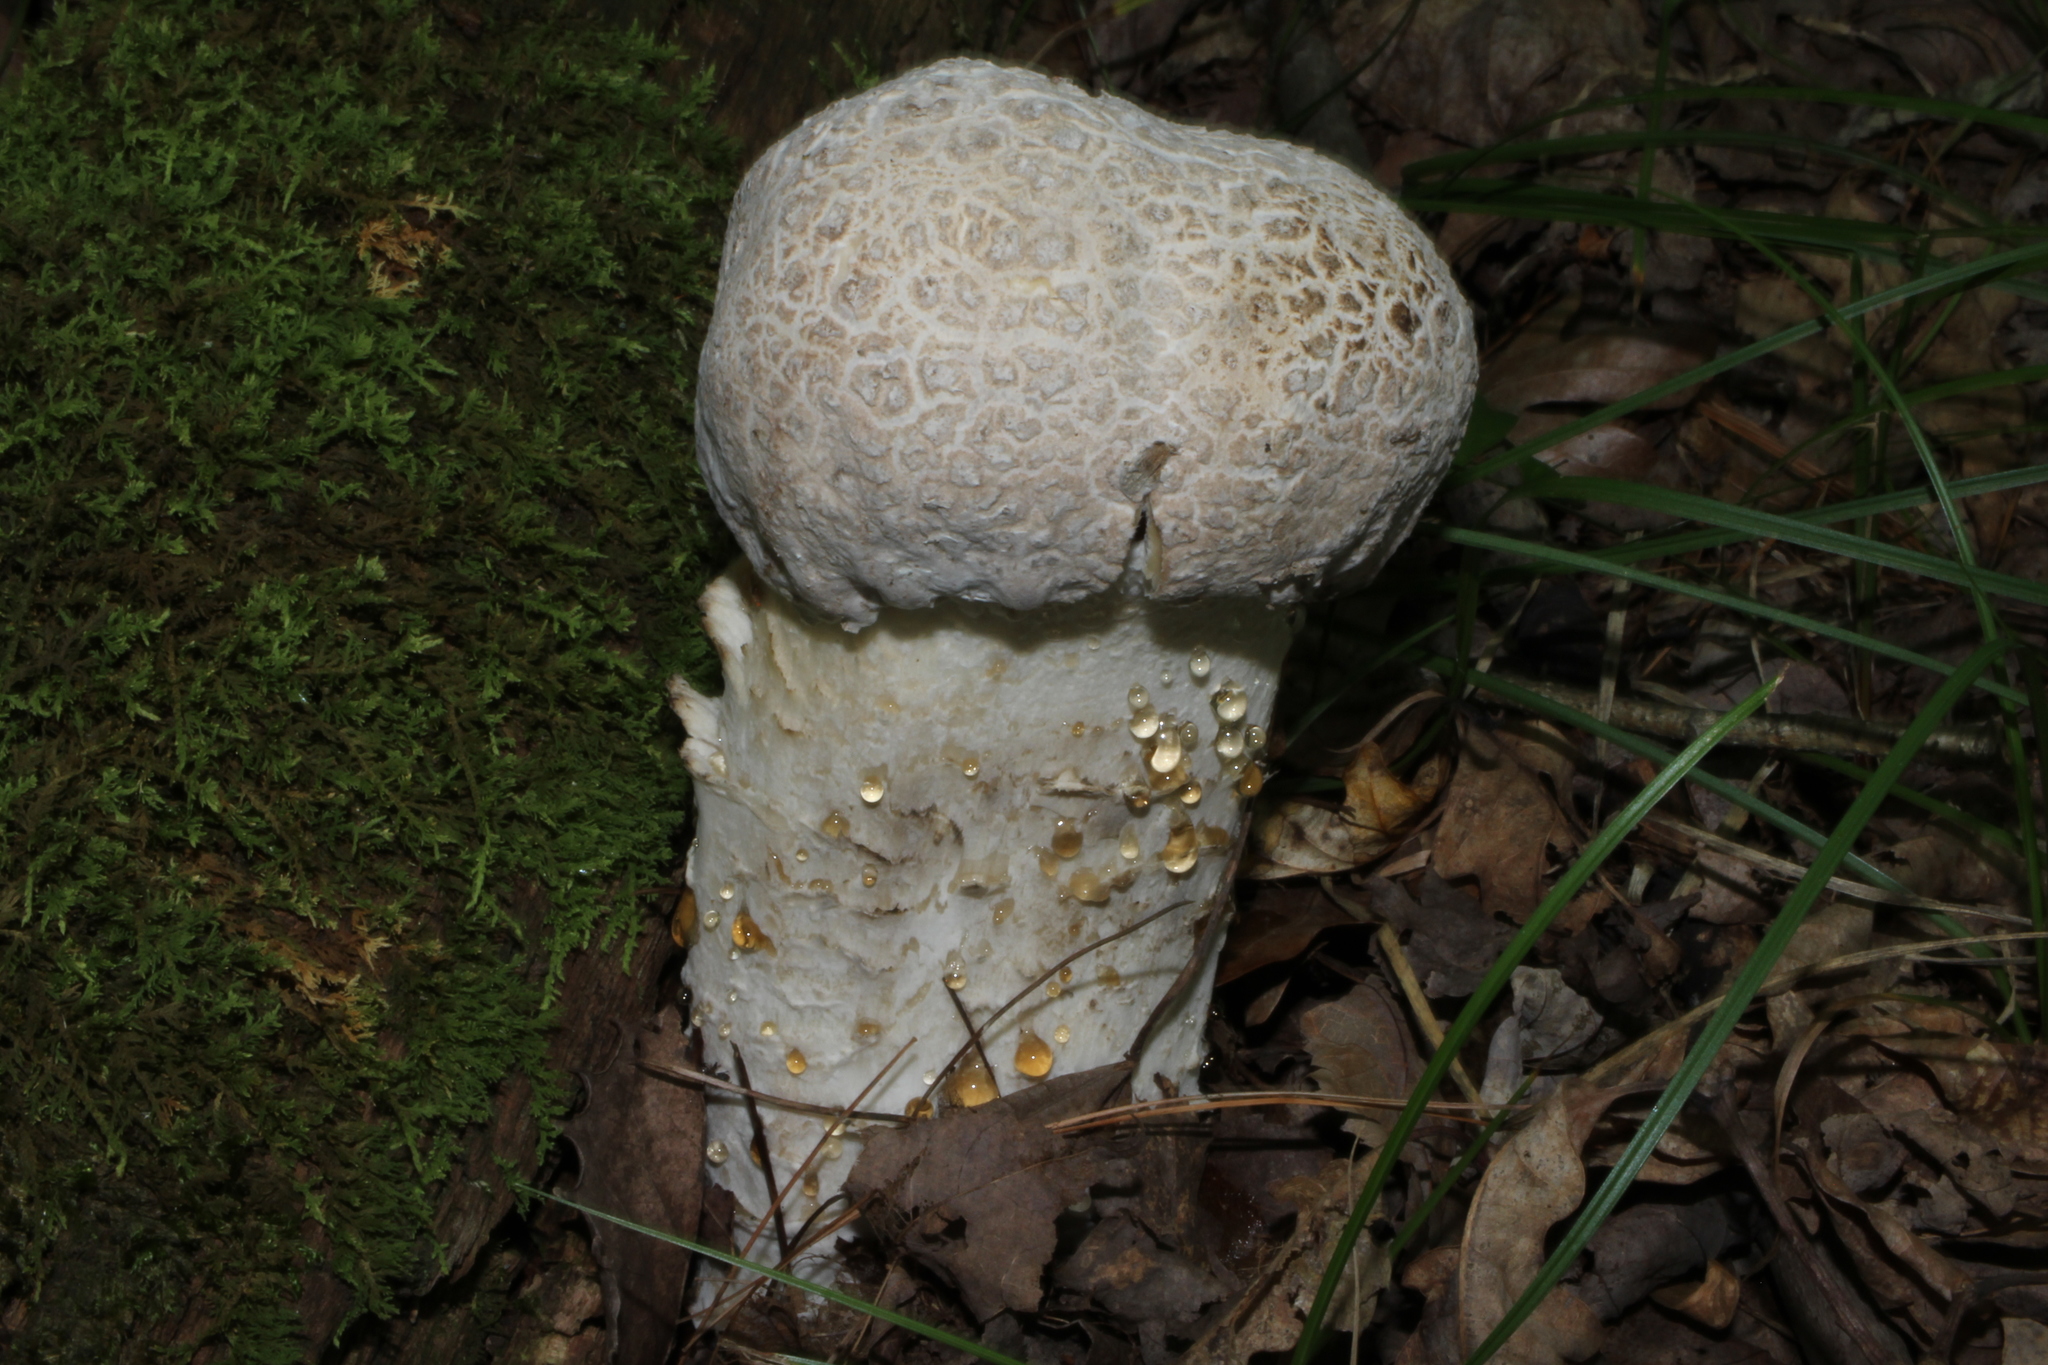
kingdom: Fungi
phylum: Ascomycota
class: Sordariomycetes
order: Hypocreales
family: Hypocreaceae
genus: Hypomyces
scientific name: Hypomyces hyalinus
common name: Amanita mold
